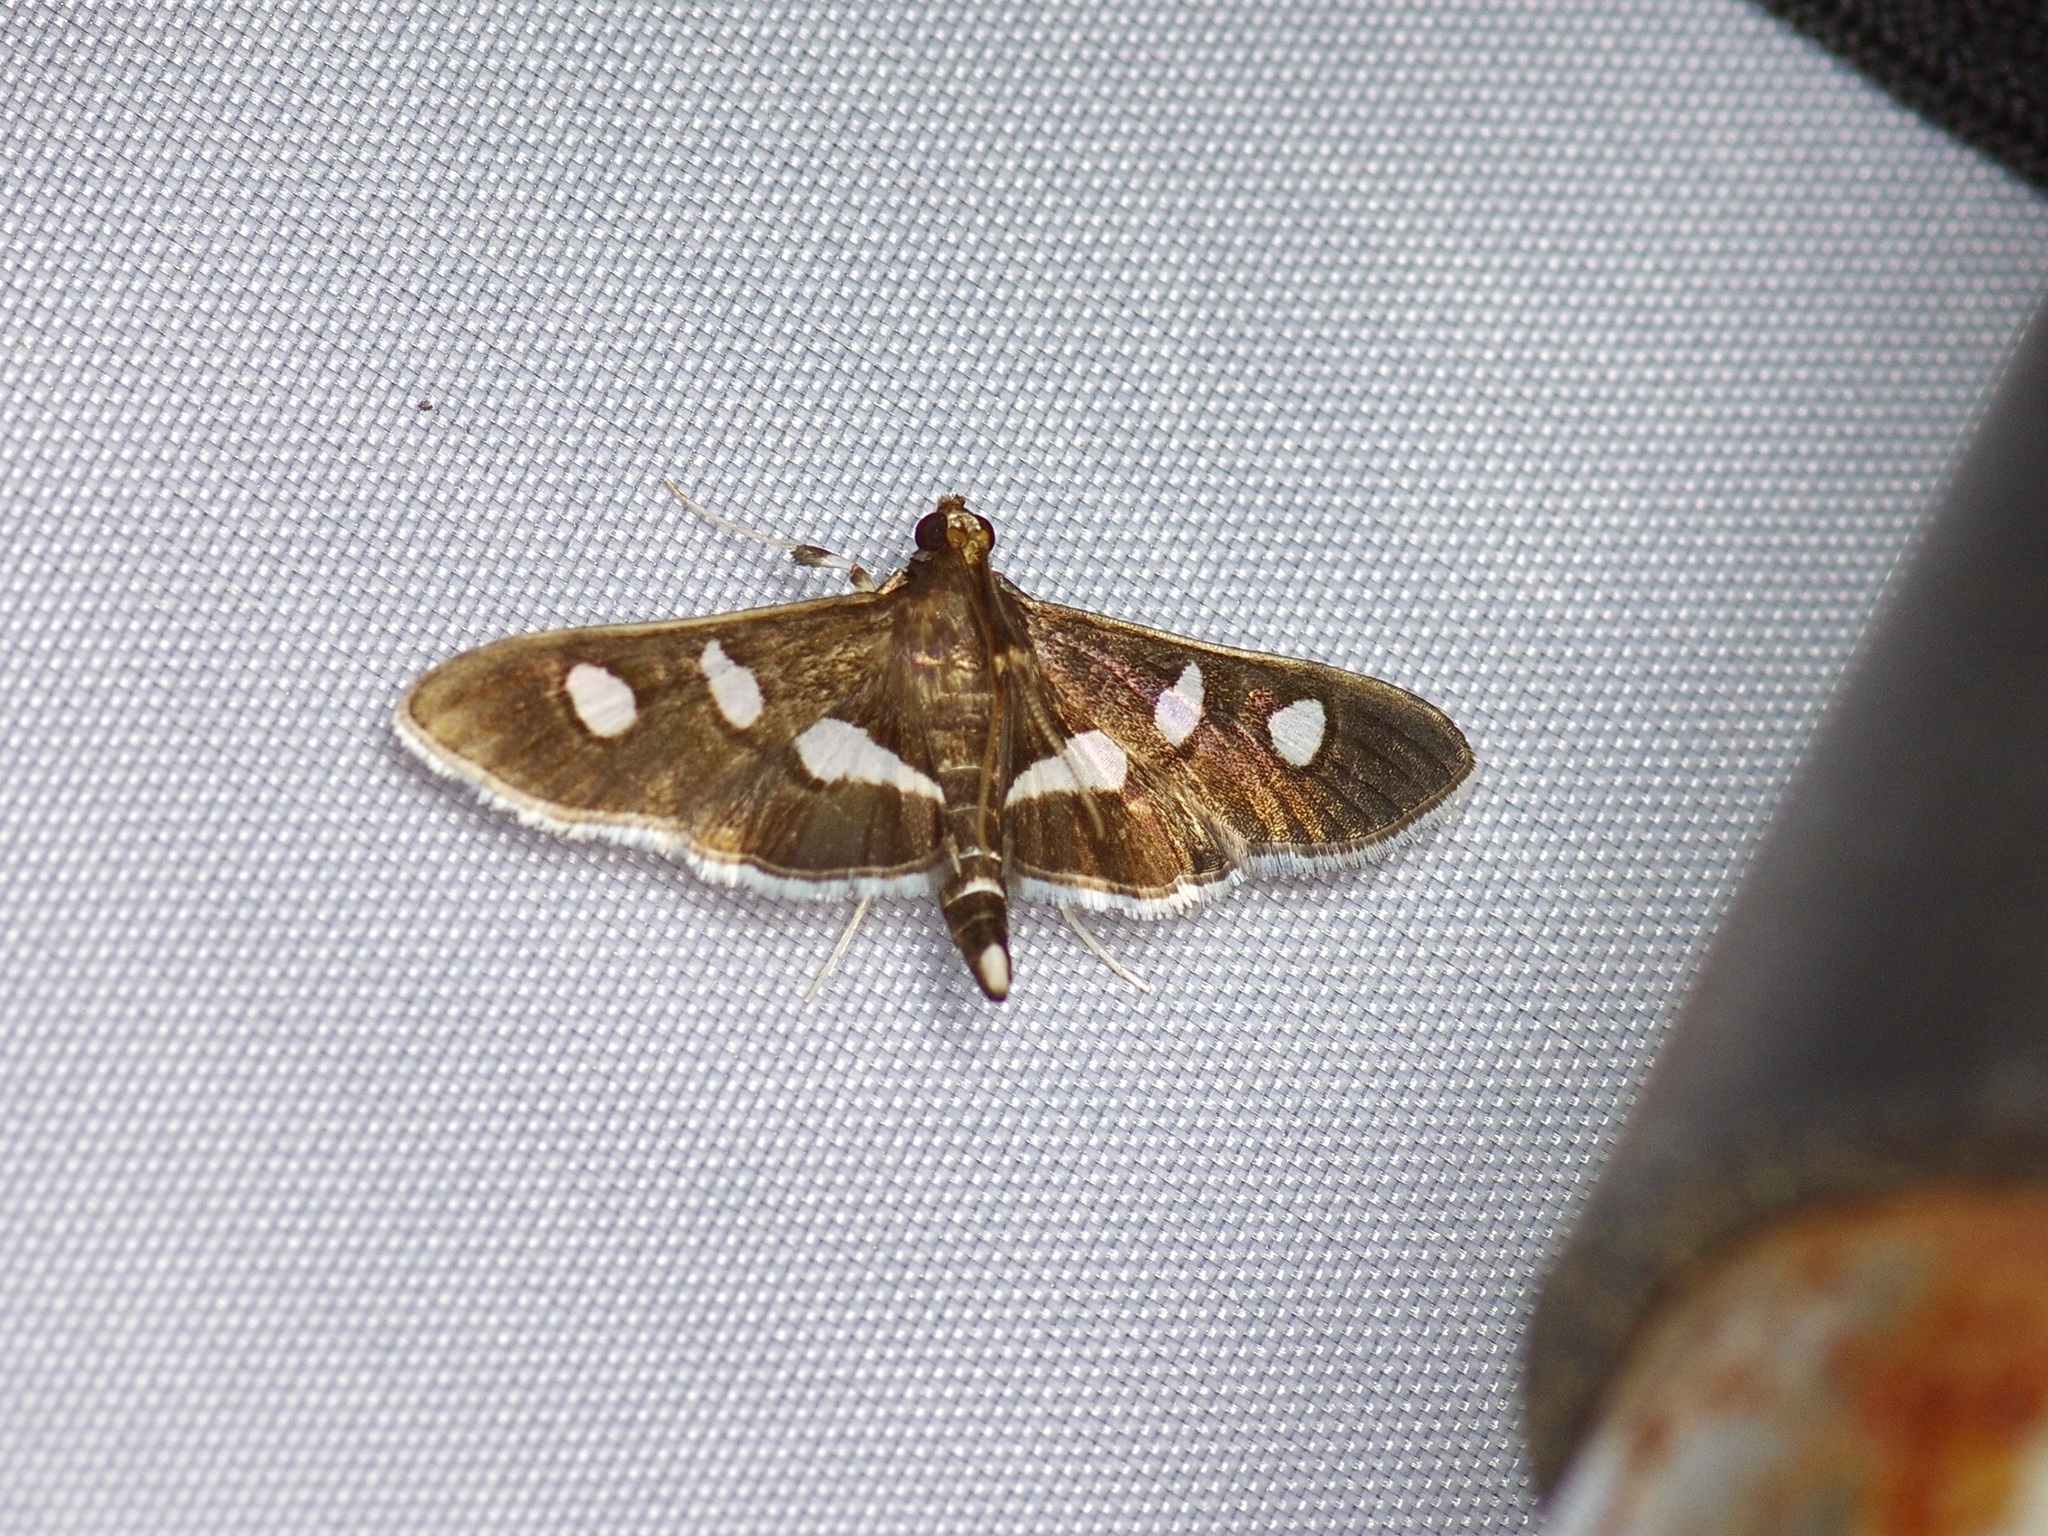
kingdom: Animalia
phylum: Arthropoda
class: Insecta
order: Lepidoptera
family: Crambidae
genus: Desmia
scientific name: Desmia funeralis
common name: Grape leaf folder moth
